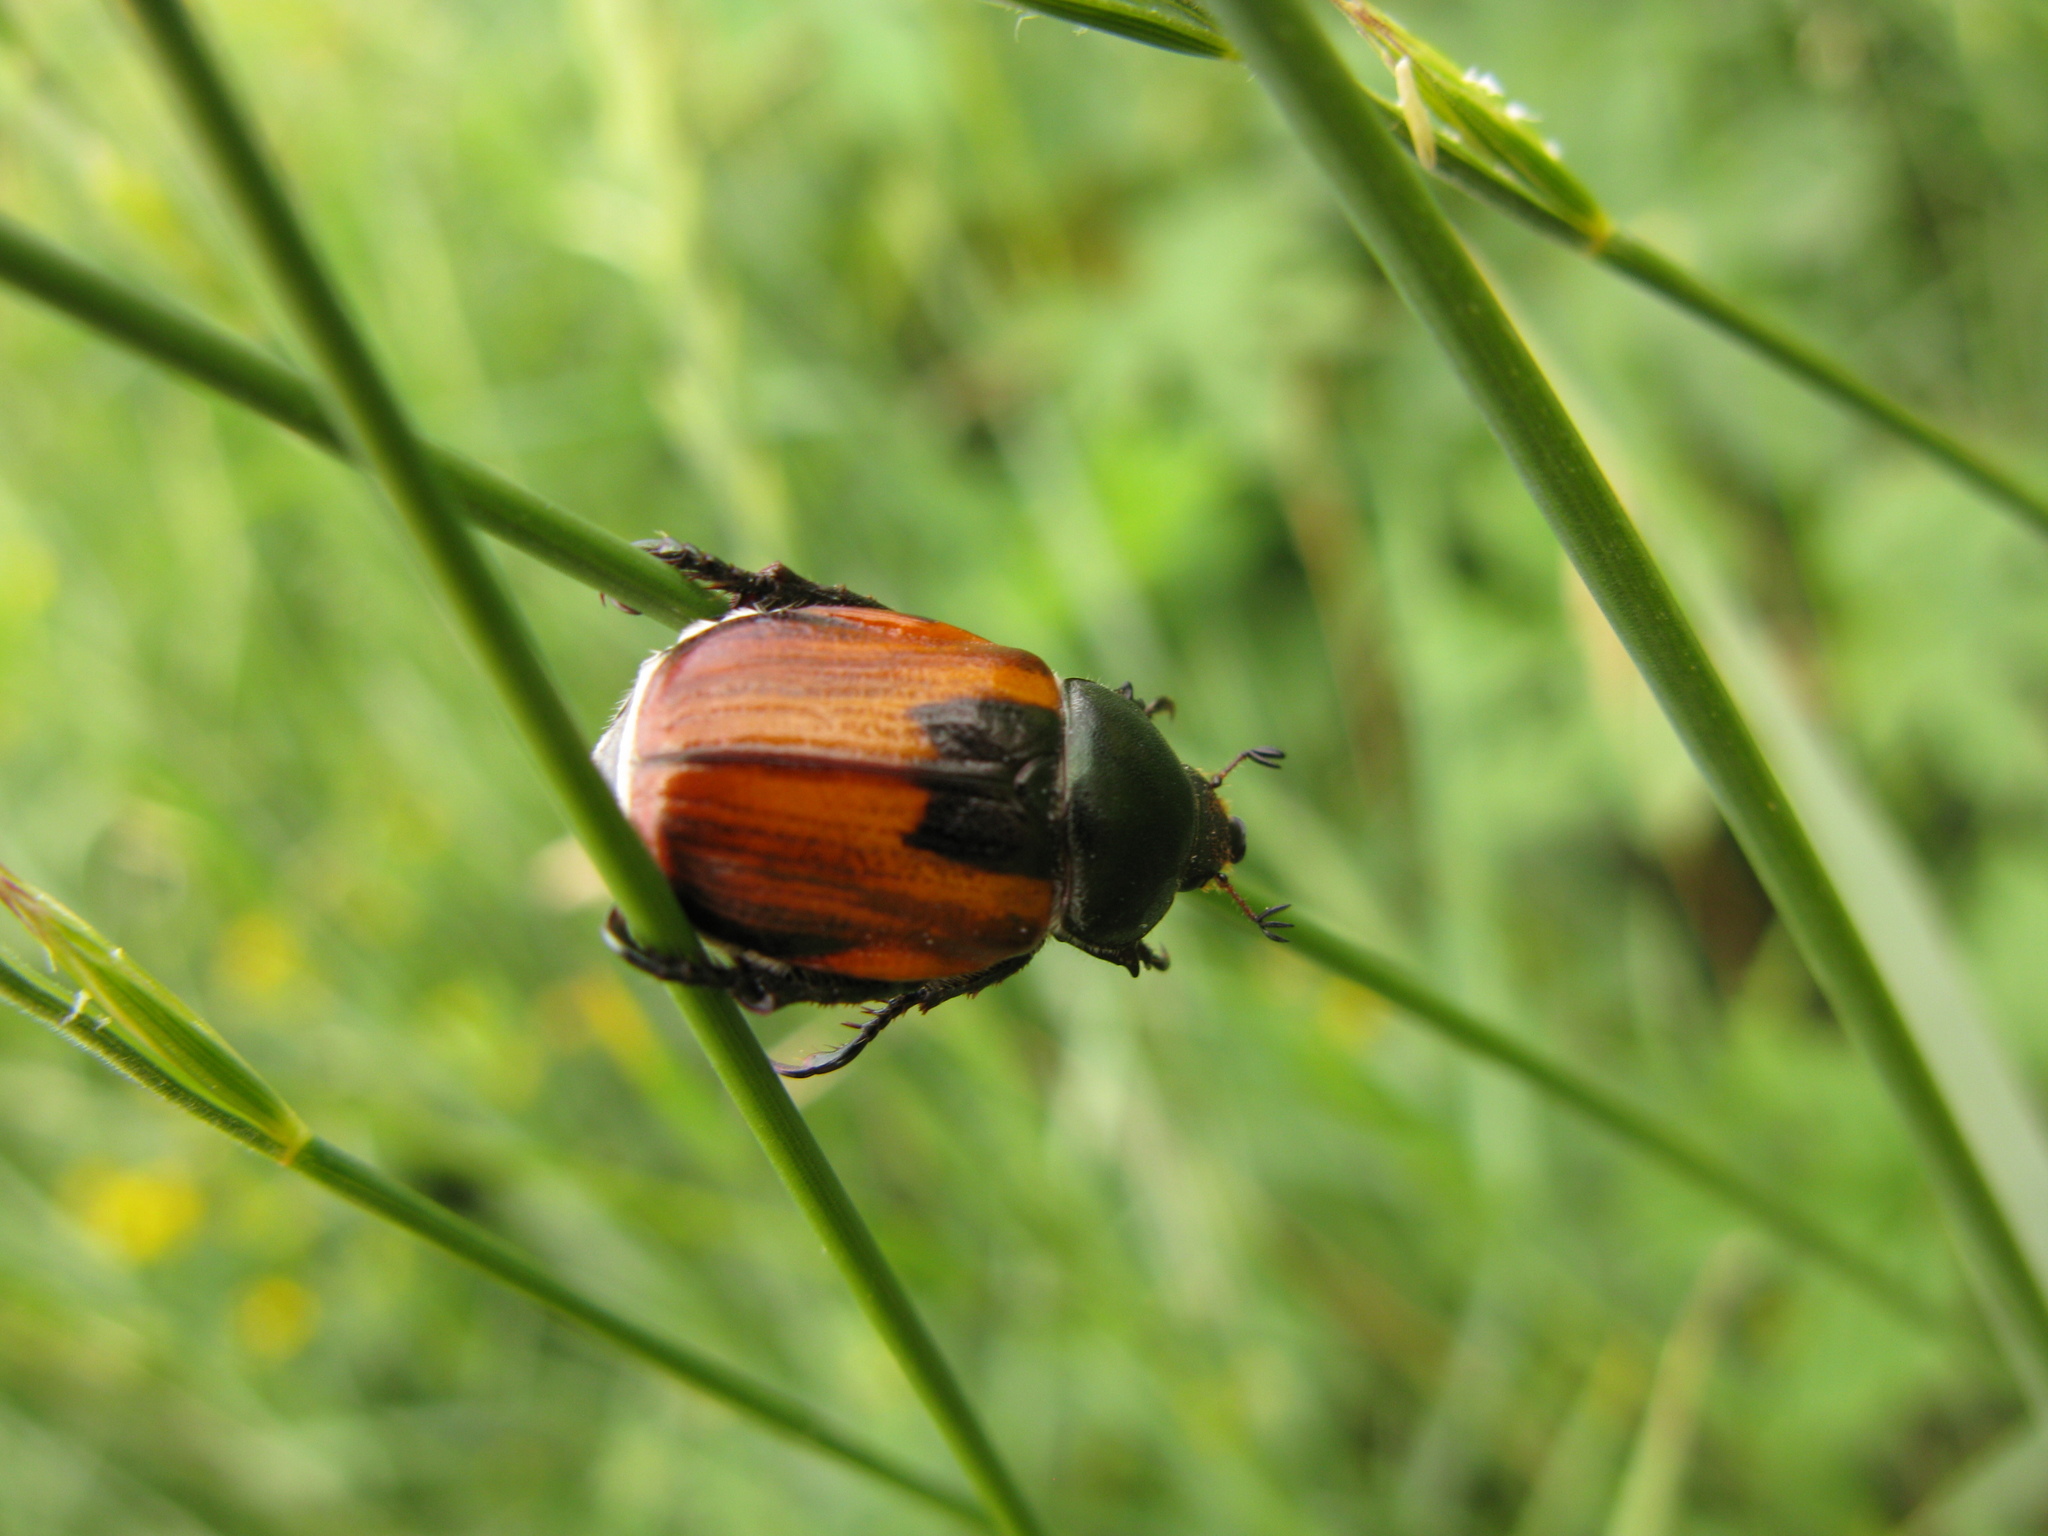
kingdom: Animalia
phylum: Arthropoda
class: Insecta
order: Coleoptera
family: Scarabaeidae
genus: Anisoplia
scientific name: Anisoplia austriaca
